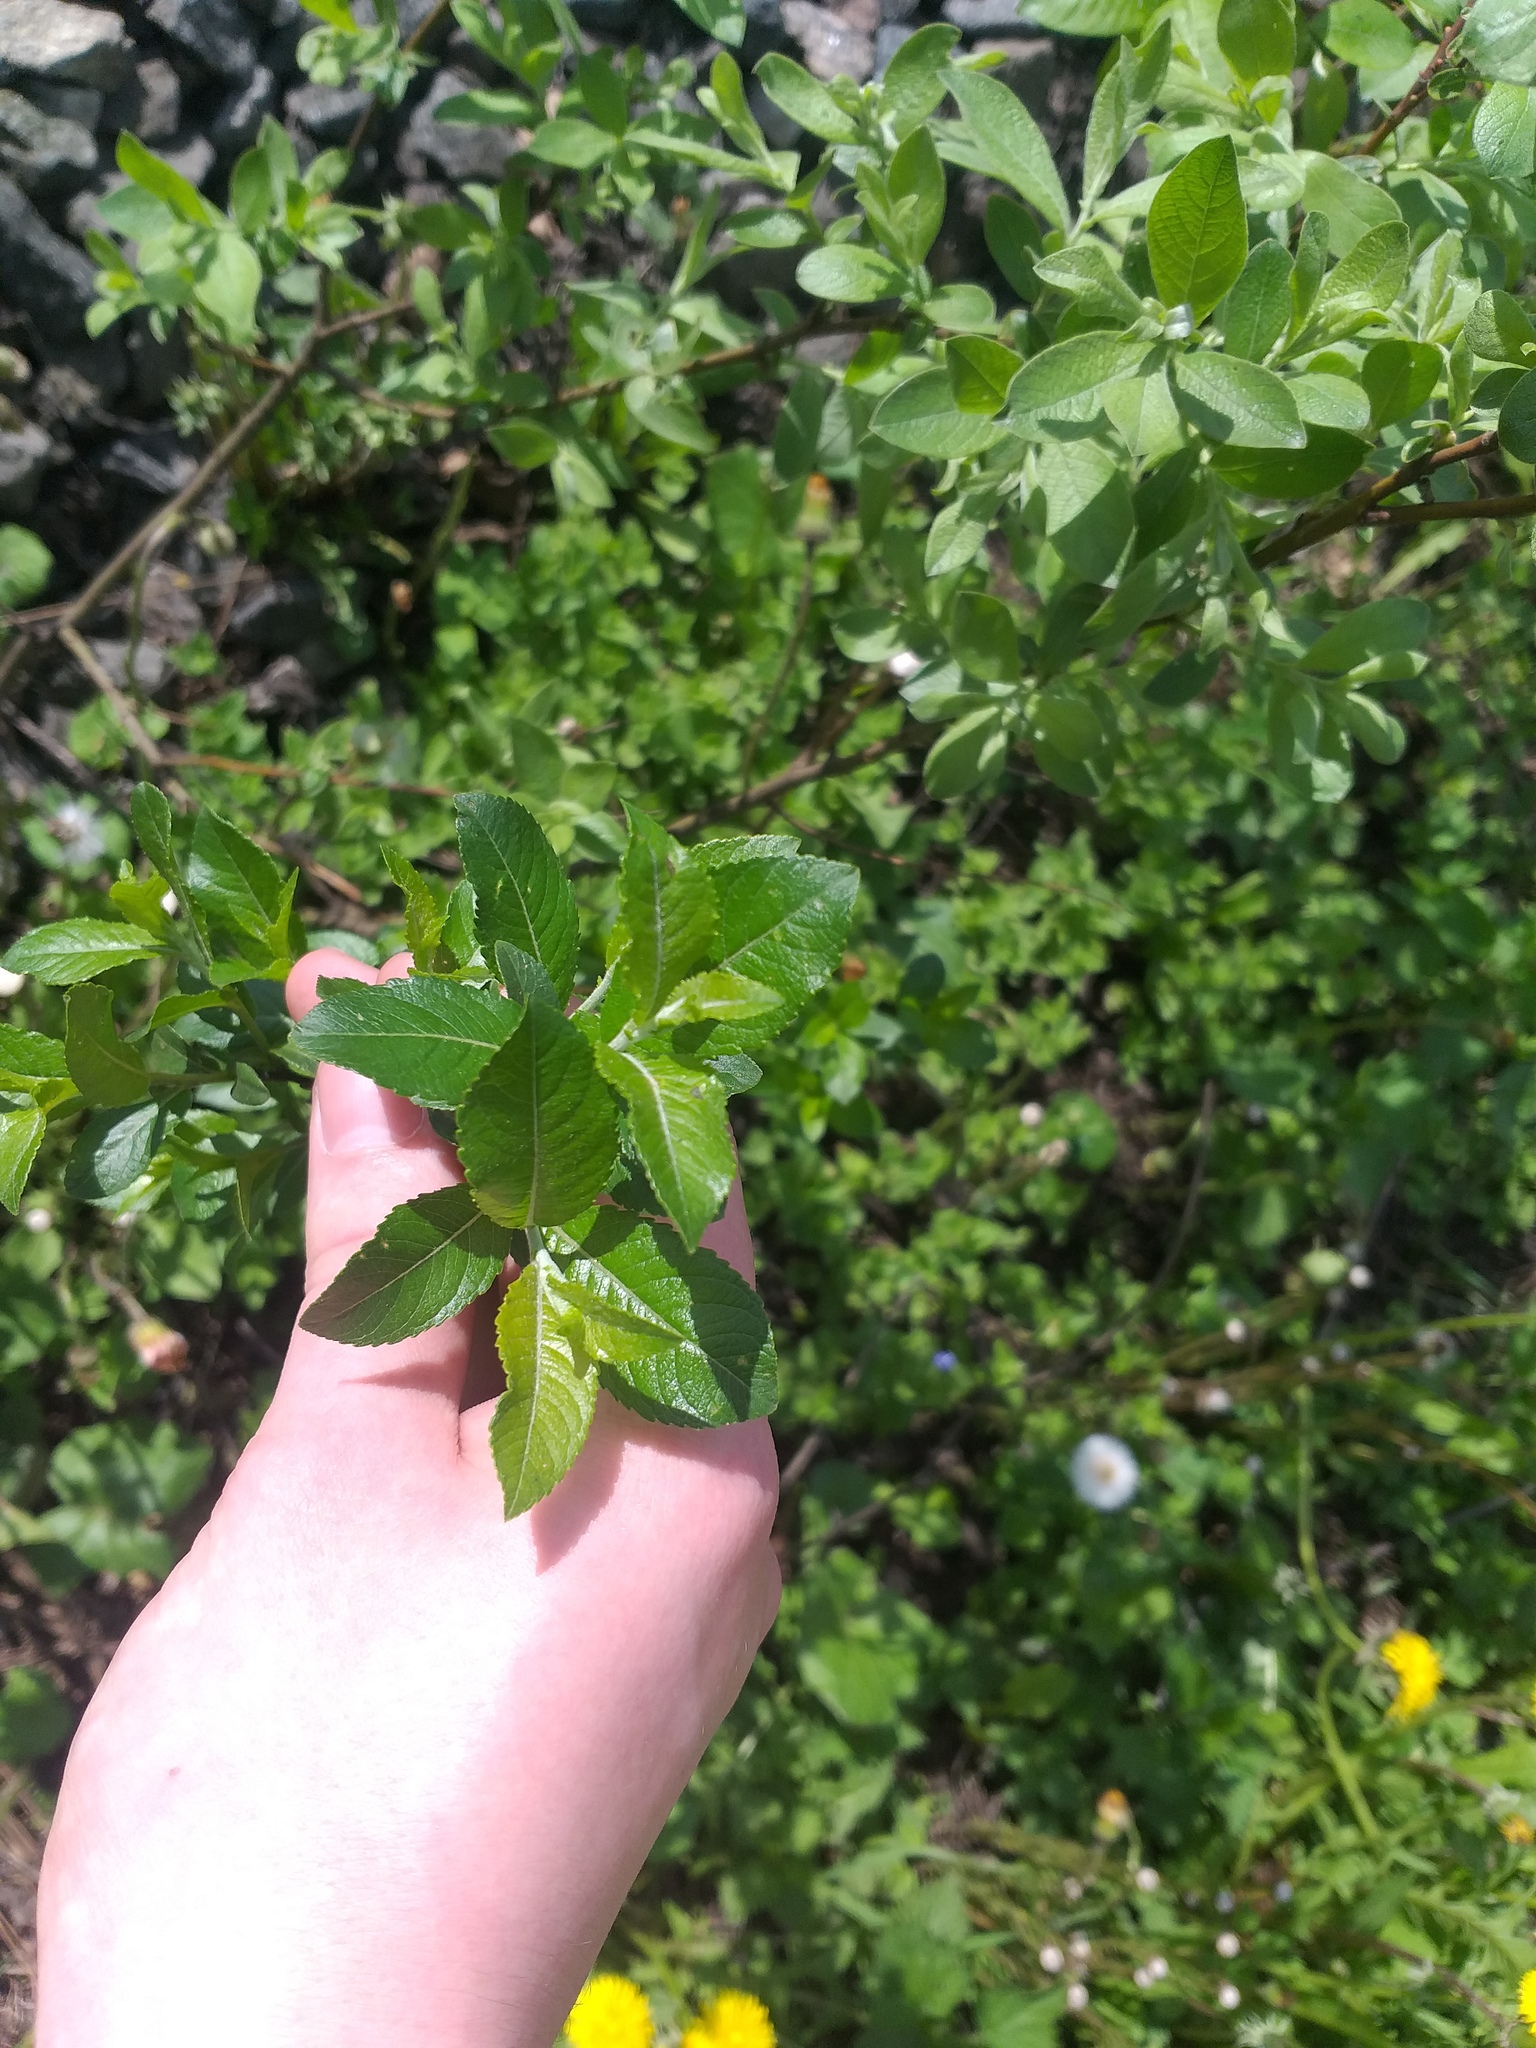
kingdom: Plantae
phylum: Tracheophyta
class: Magnoliopsida
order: Malpighiales
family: Salicaceae
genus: Salix
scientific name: Salix myrsinifolia
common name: Dark-leaved willow
